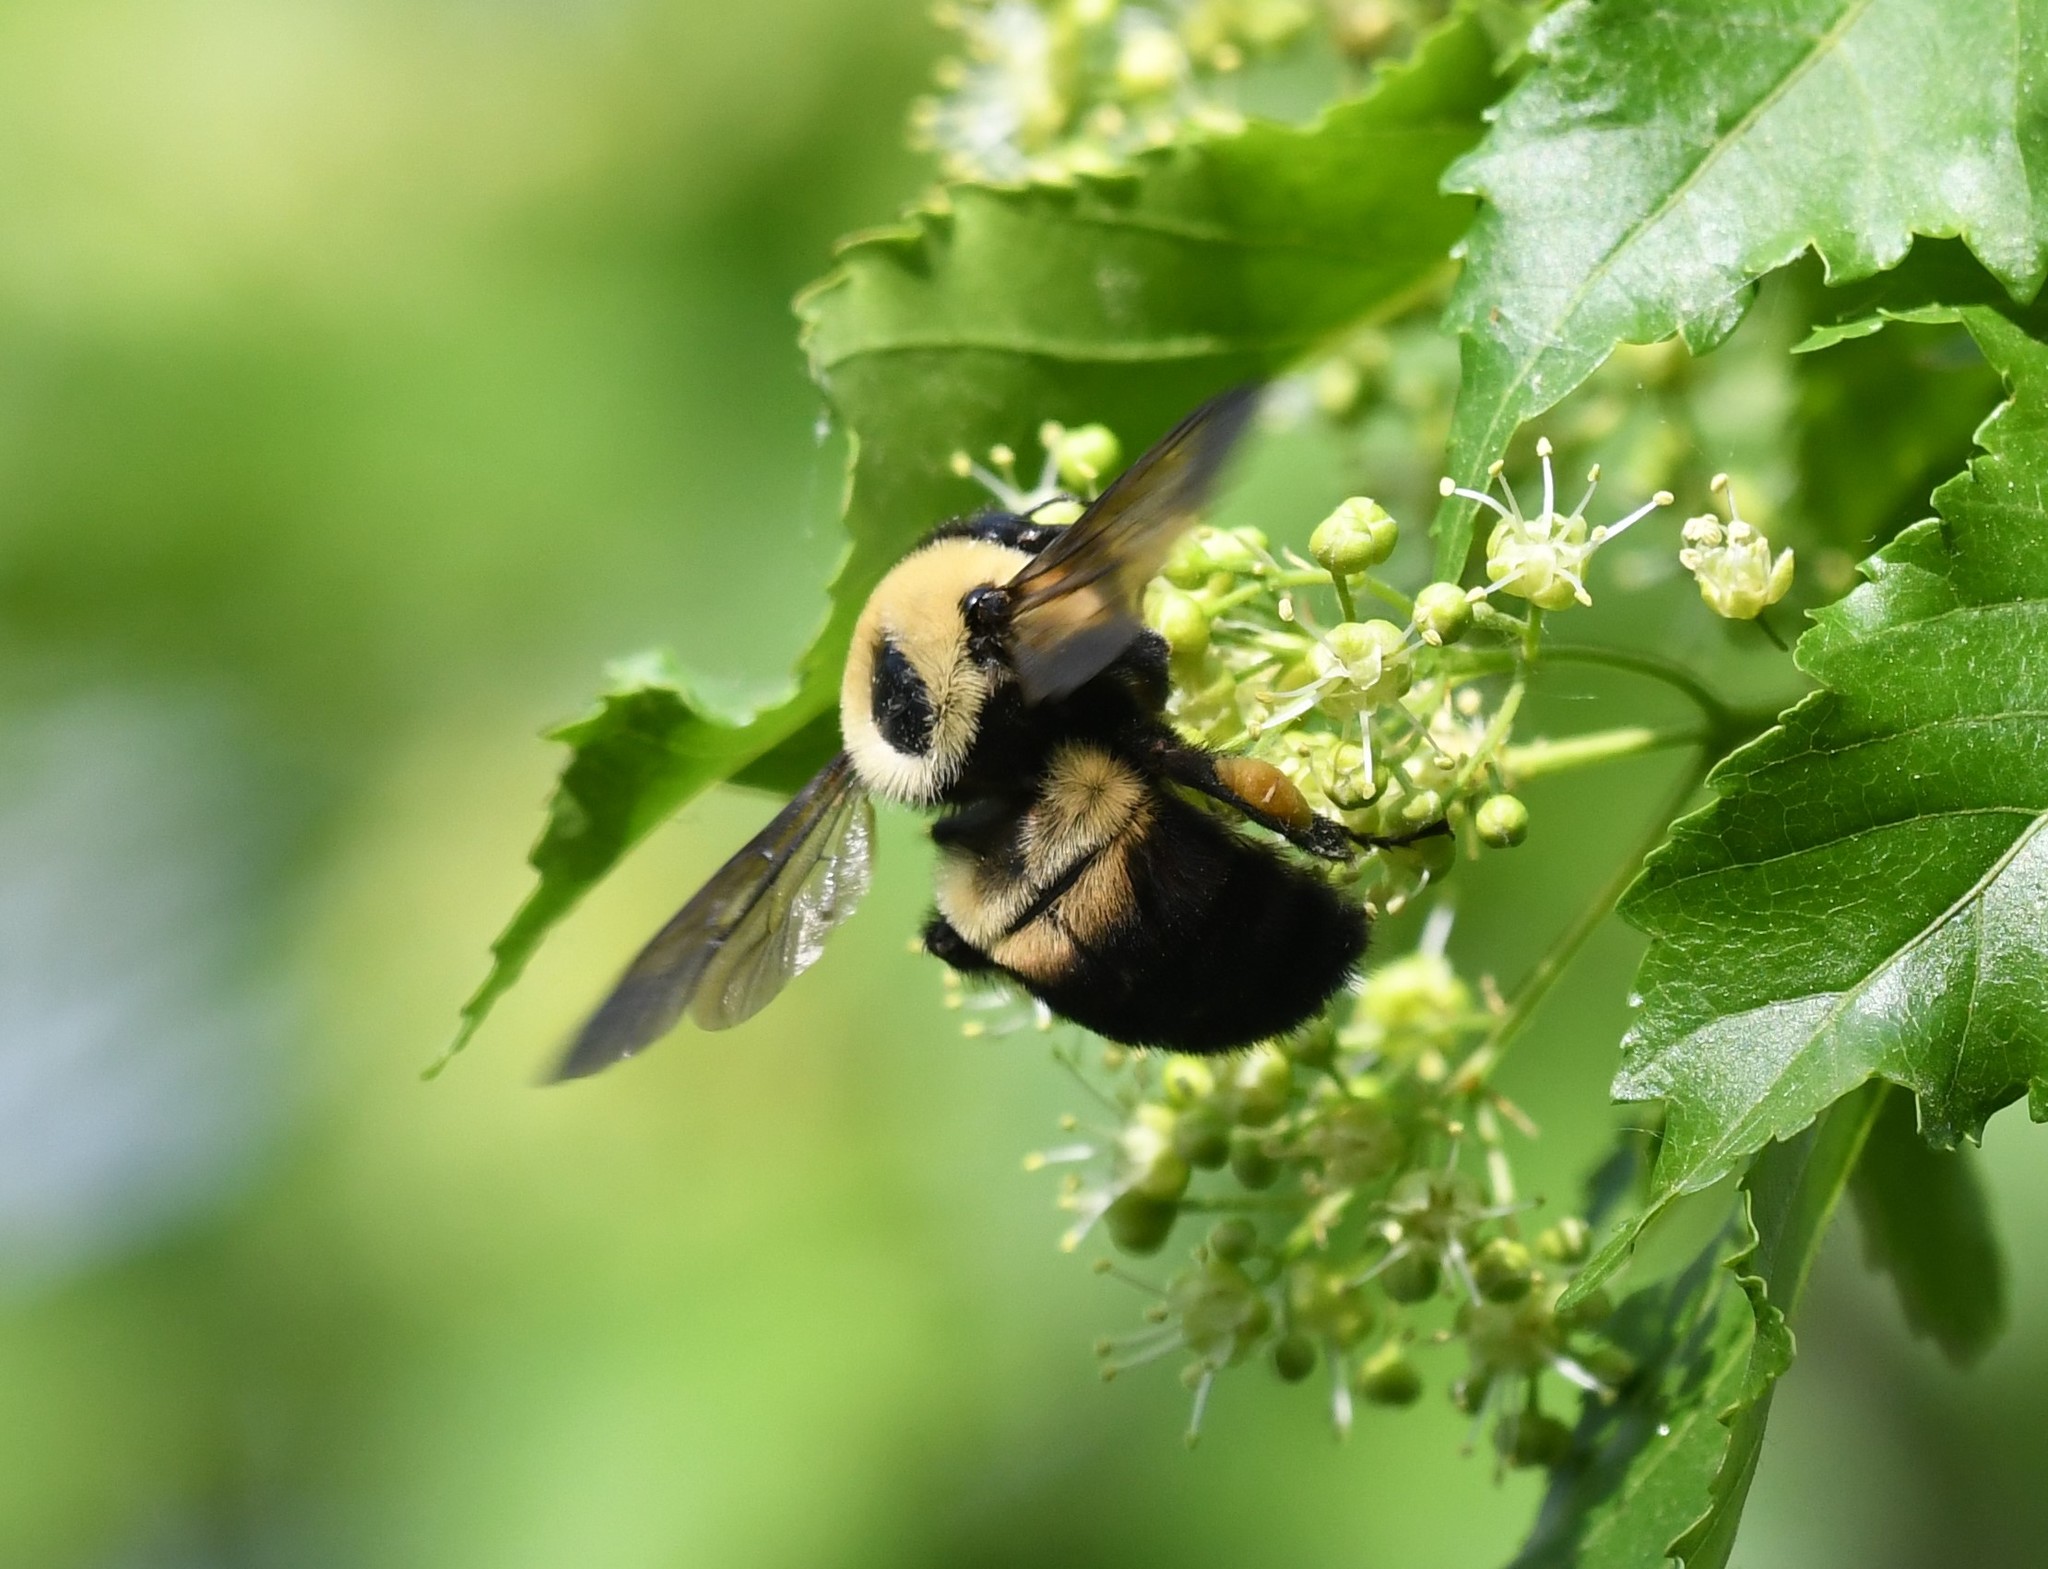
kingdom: Animalia
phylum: Arthropoda
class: Insecta
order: Hymenoptera
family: Apidae
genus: Bombus
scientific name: Bombus griseocollis
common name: Brown-belted bumble bee
